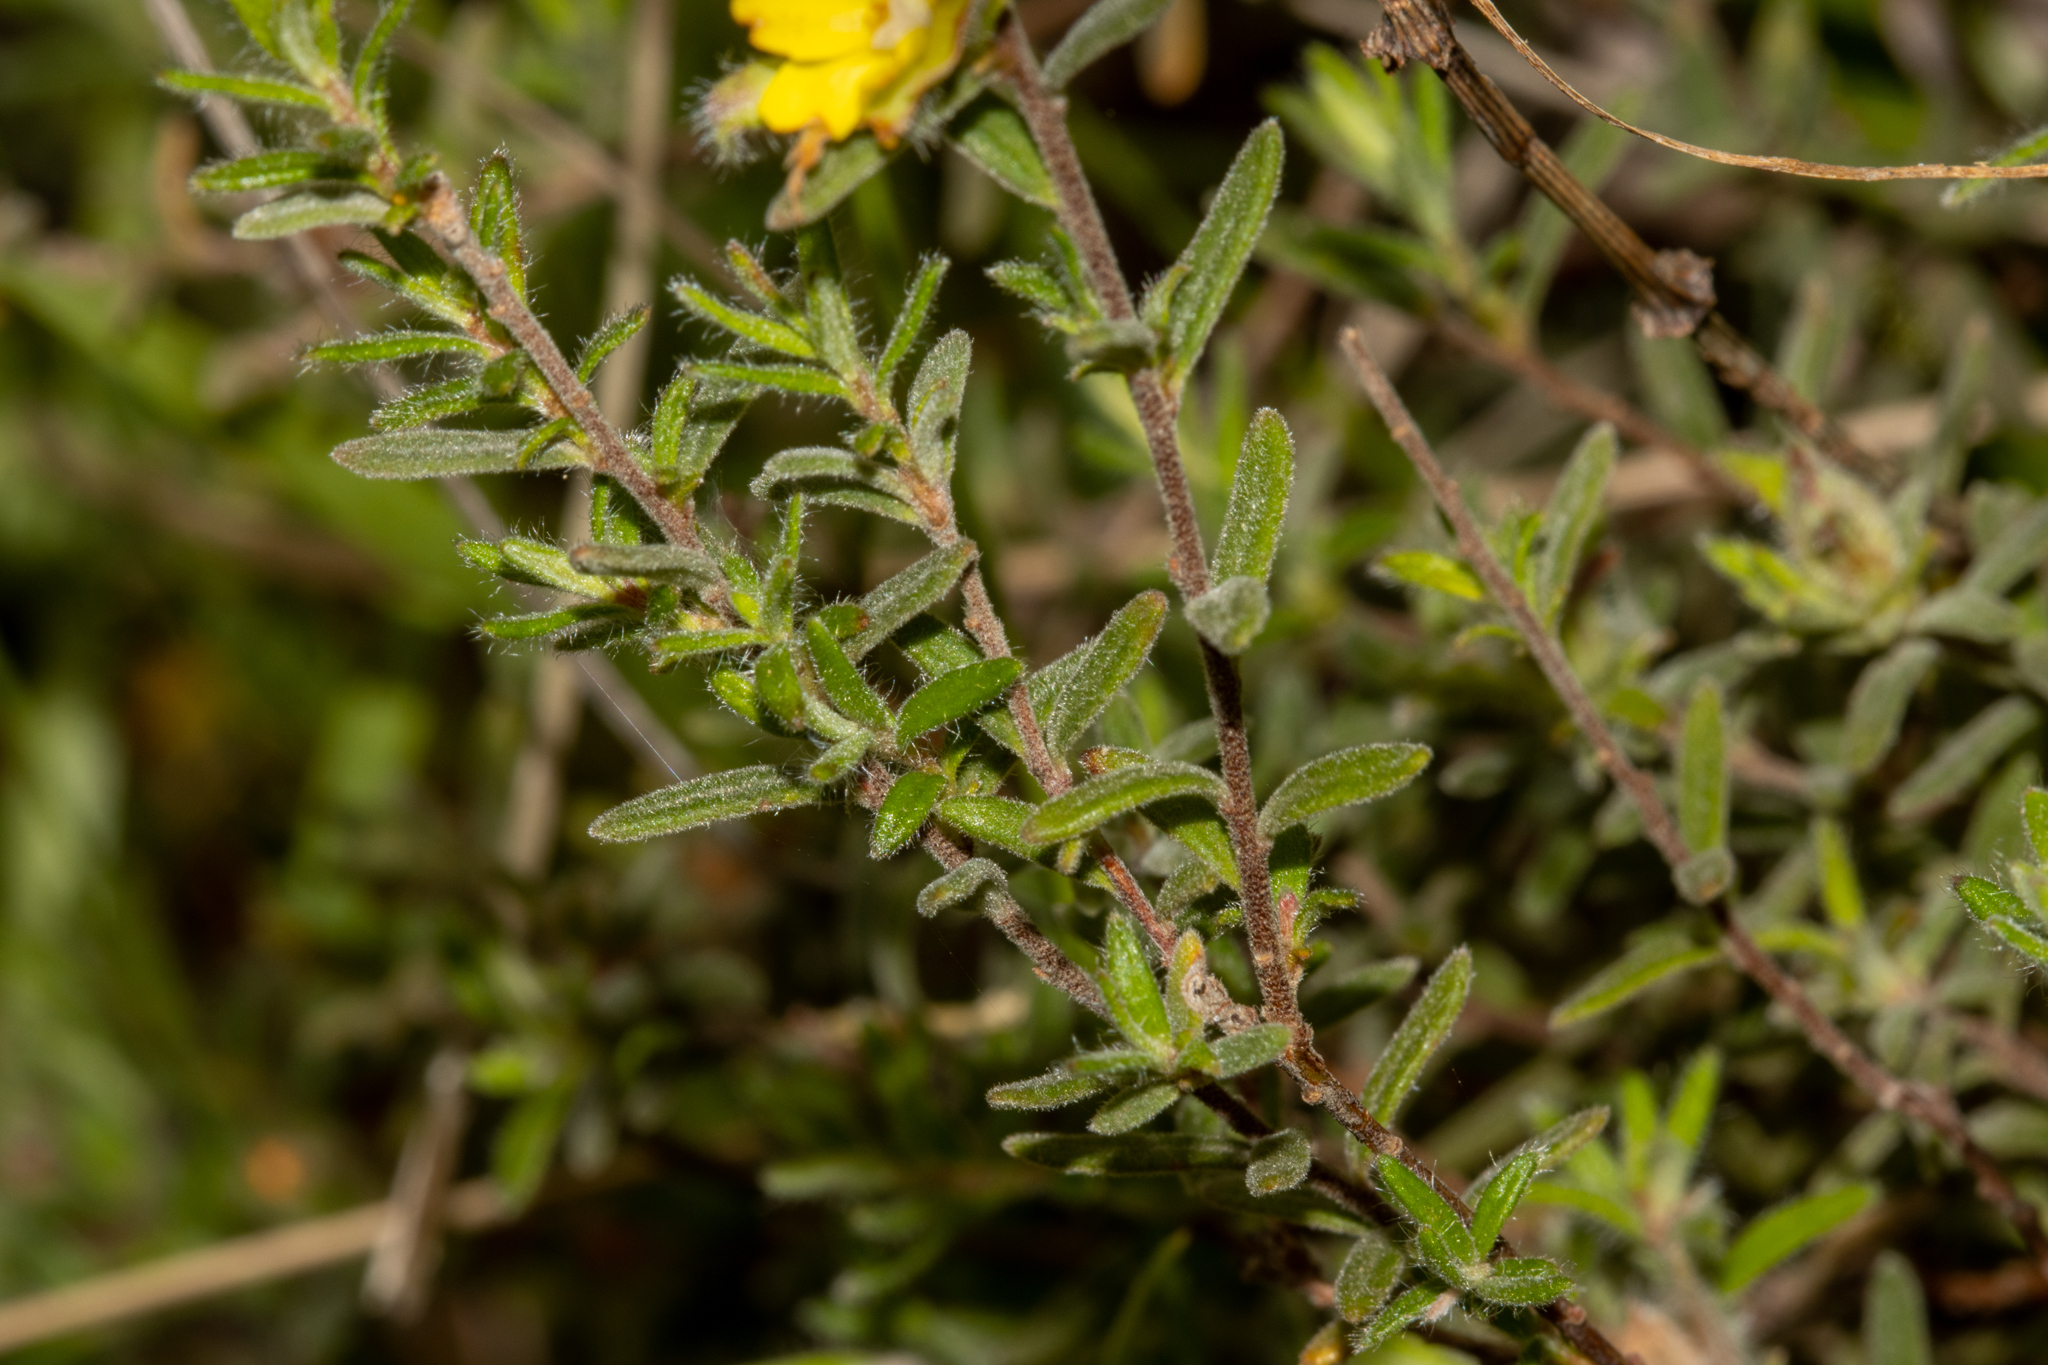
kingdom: Plantae
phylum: Tracheophyta
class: Magnoliopsida
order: Dilleniales
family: Dilleniaceae
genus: Hibbertia
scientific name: Hibbertia crinita
